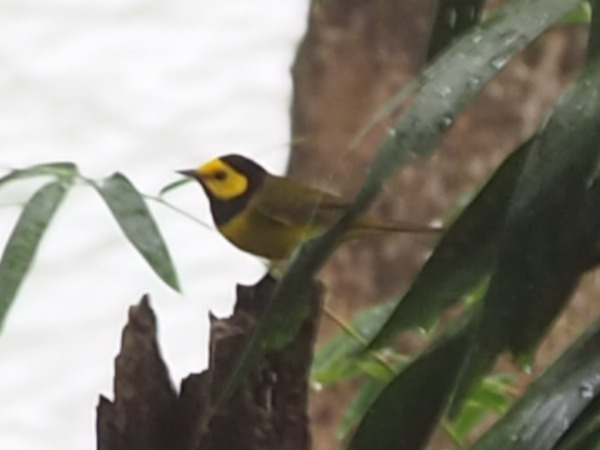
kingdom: Animalia
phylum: Chordata
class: Aves
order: Passeriformes
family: Parulidae
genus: Setophaga
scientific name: Setophaga citrina
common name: Hooded warbler
